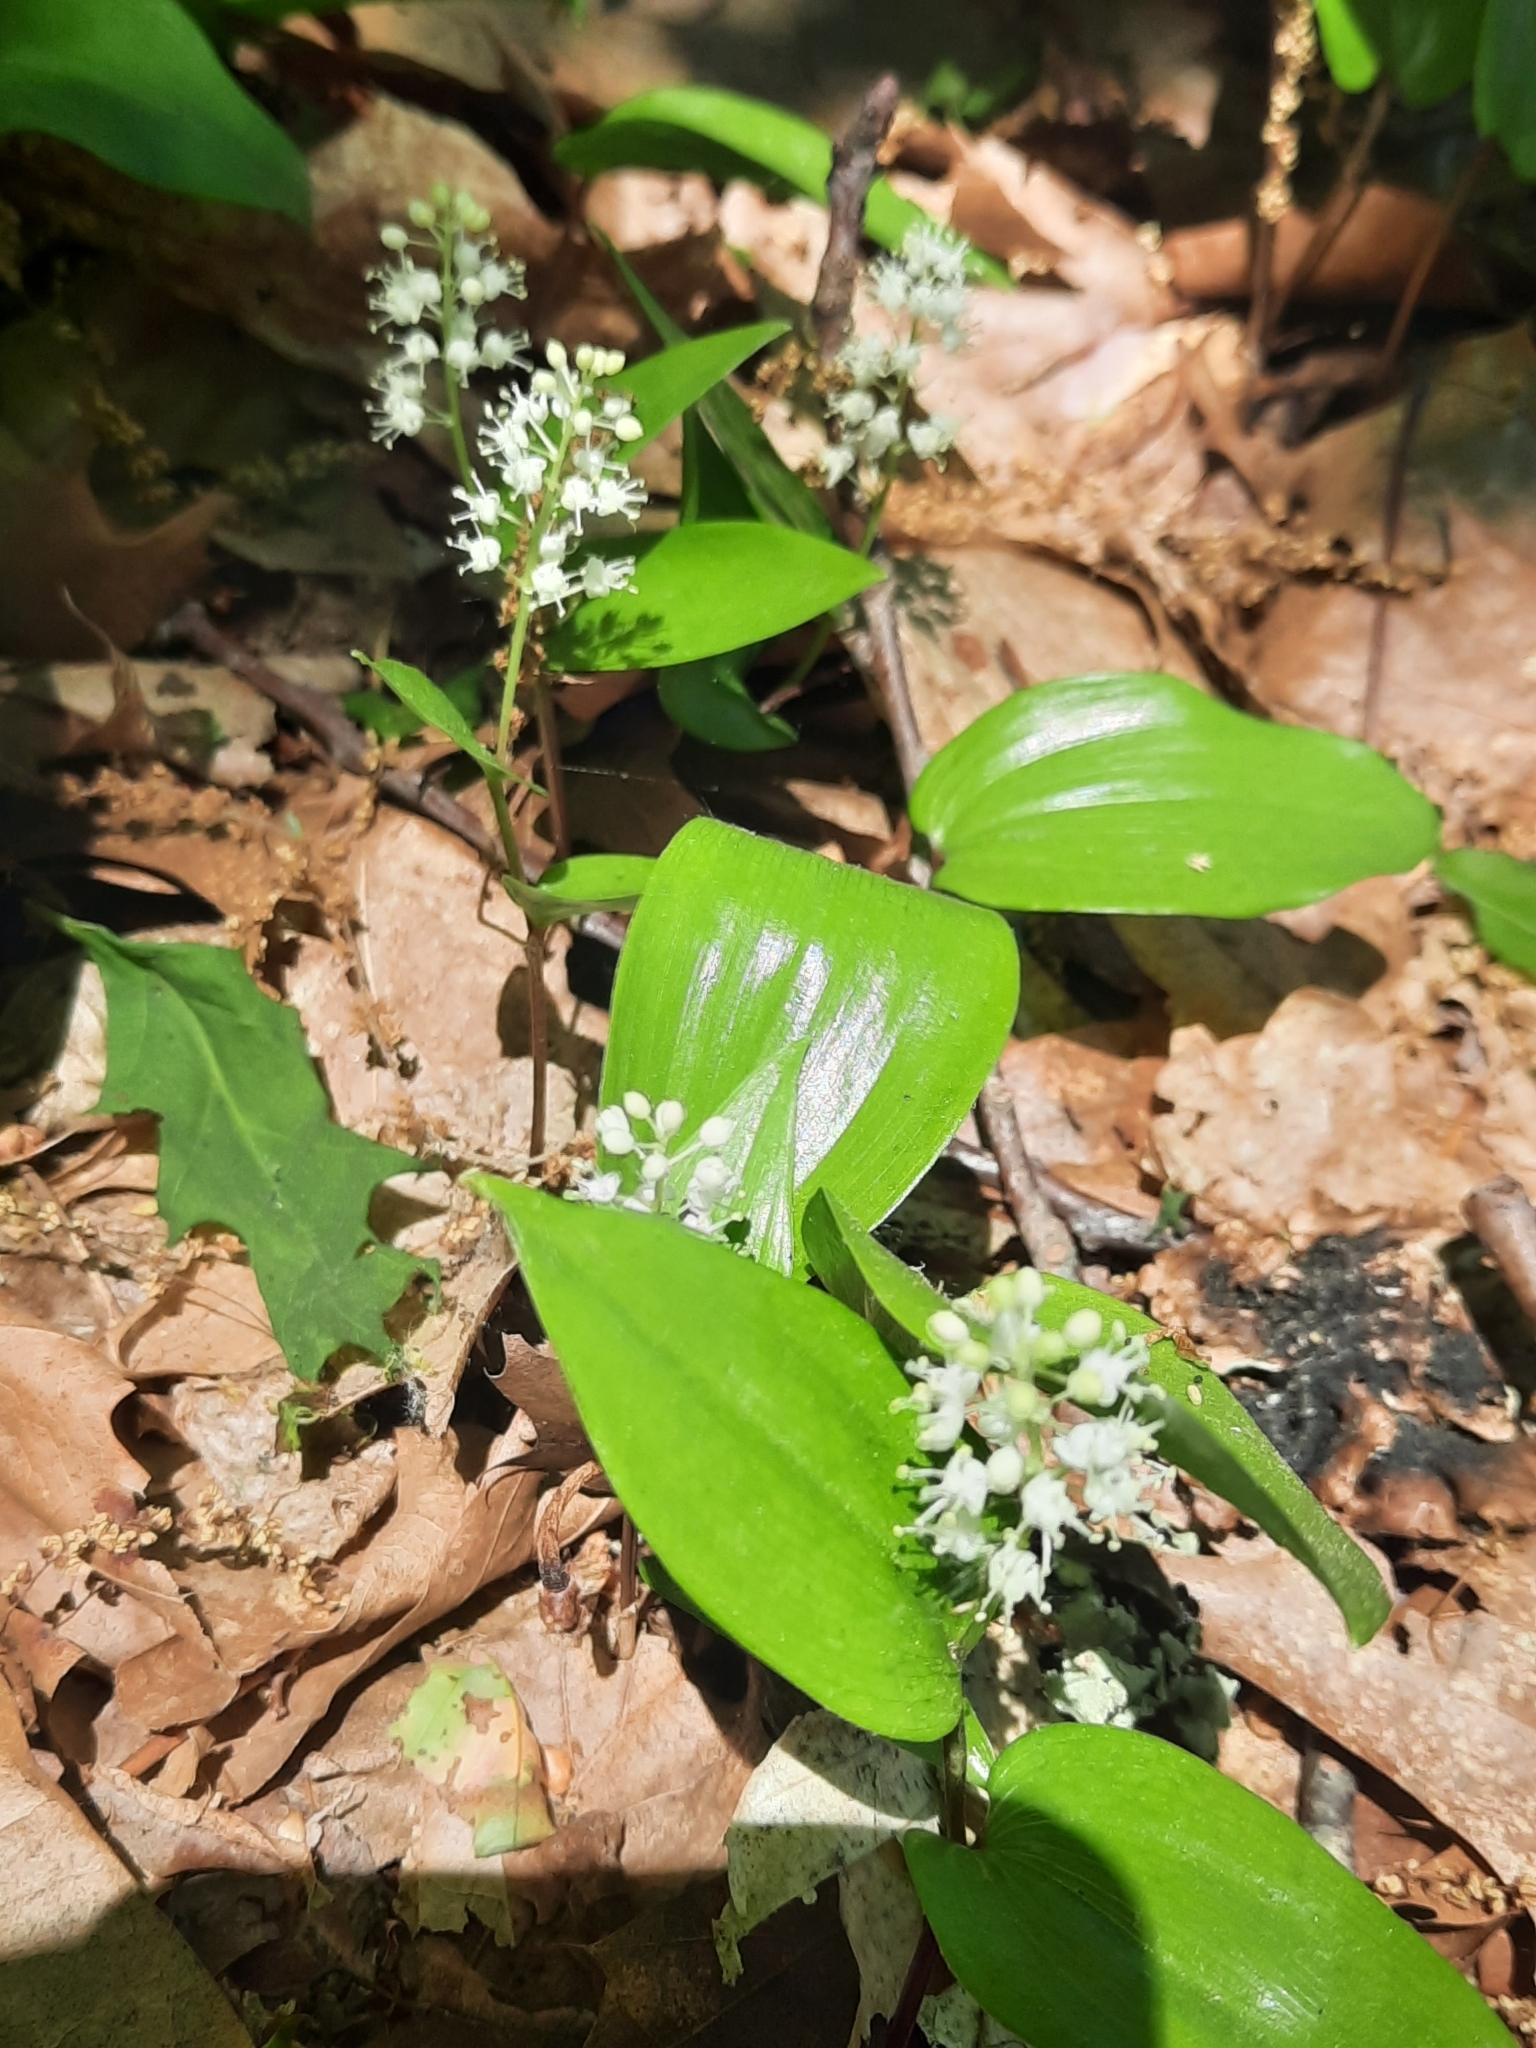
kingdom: Plantae
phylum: Tracheophyta
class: Liliopsida
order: Asparagales
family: Asparagaceae
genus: Maianthemum
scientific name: Maianthemum canadense
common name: False lily-of-the-valley
